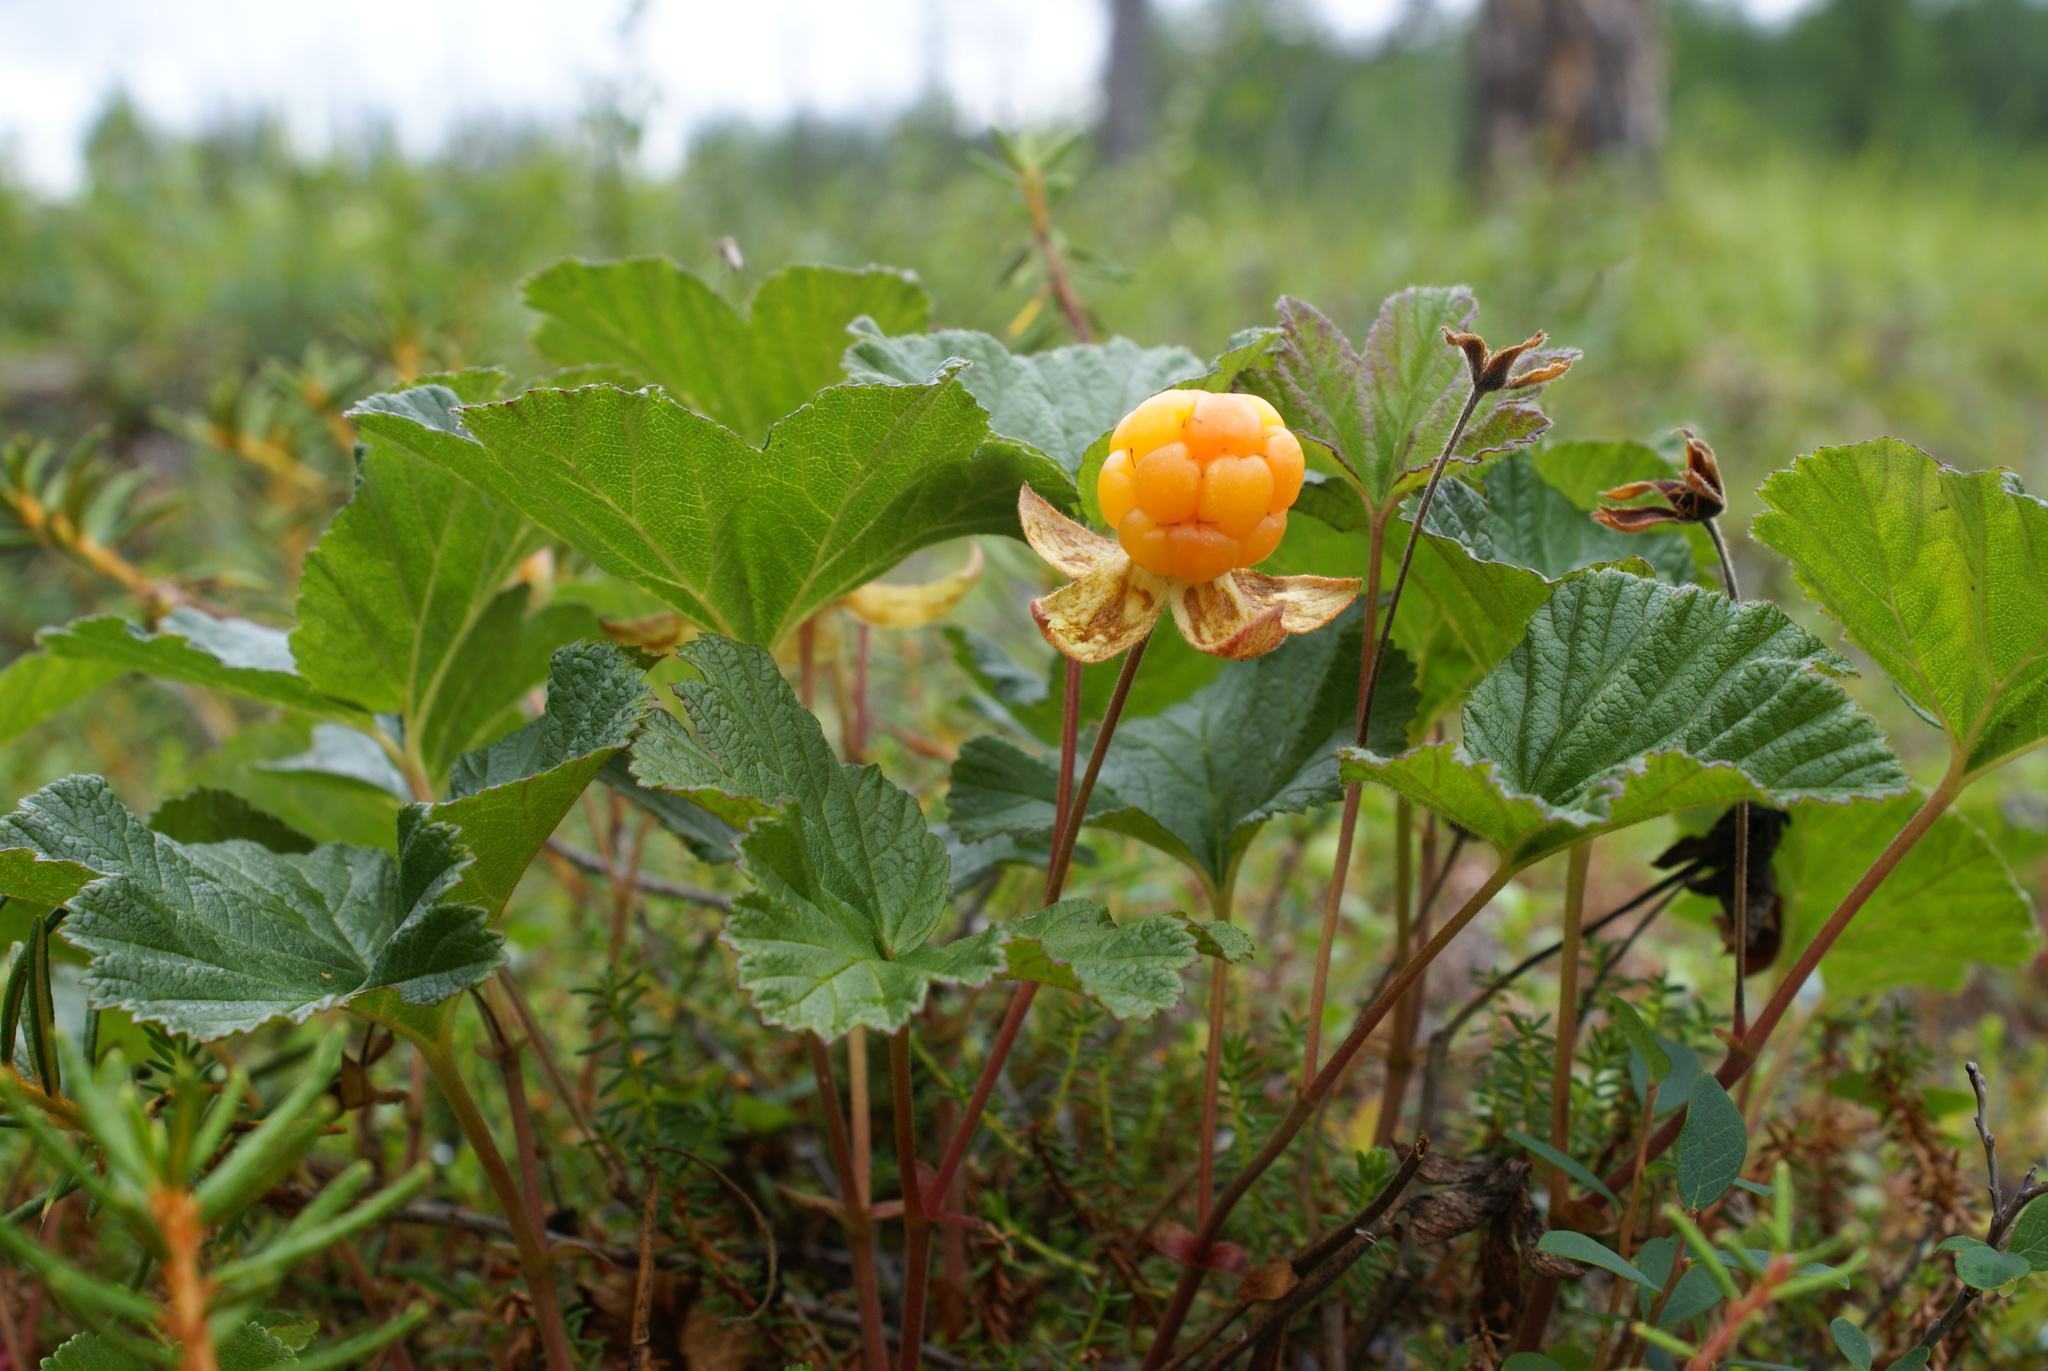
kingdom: Plantae
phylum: Tracheophyta
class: Magnoliopsida
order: Rosales
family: Rosaceae
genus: Rubus
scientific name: Rubus chamaemorus
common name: Cloudberry
